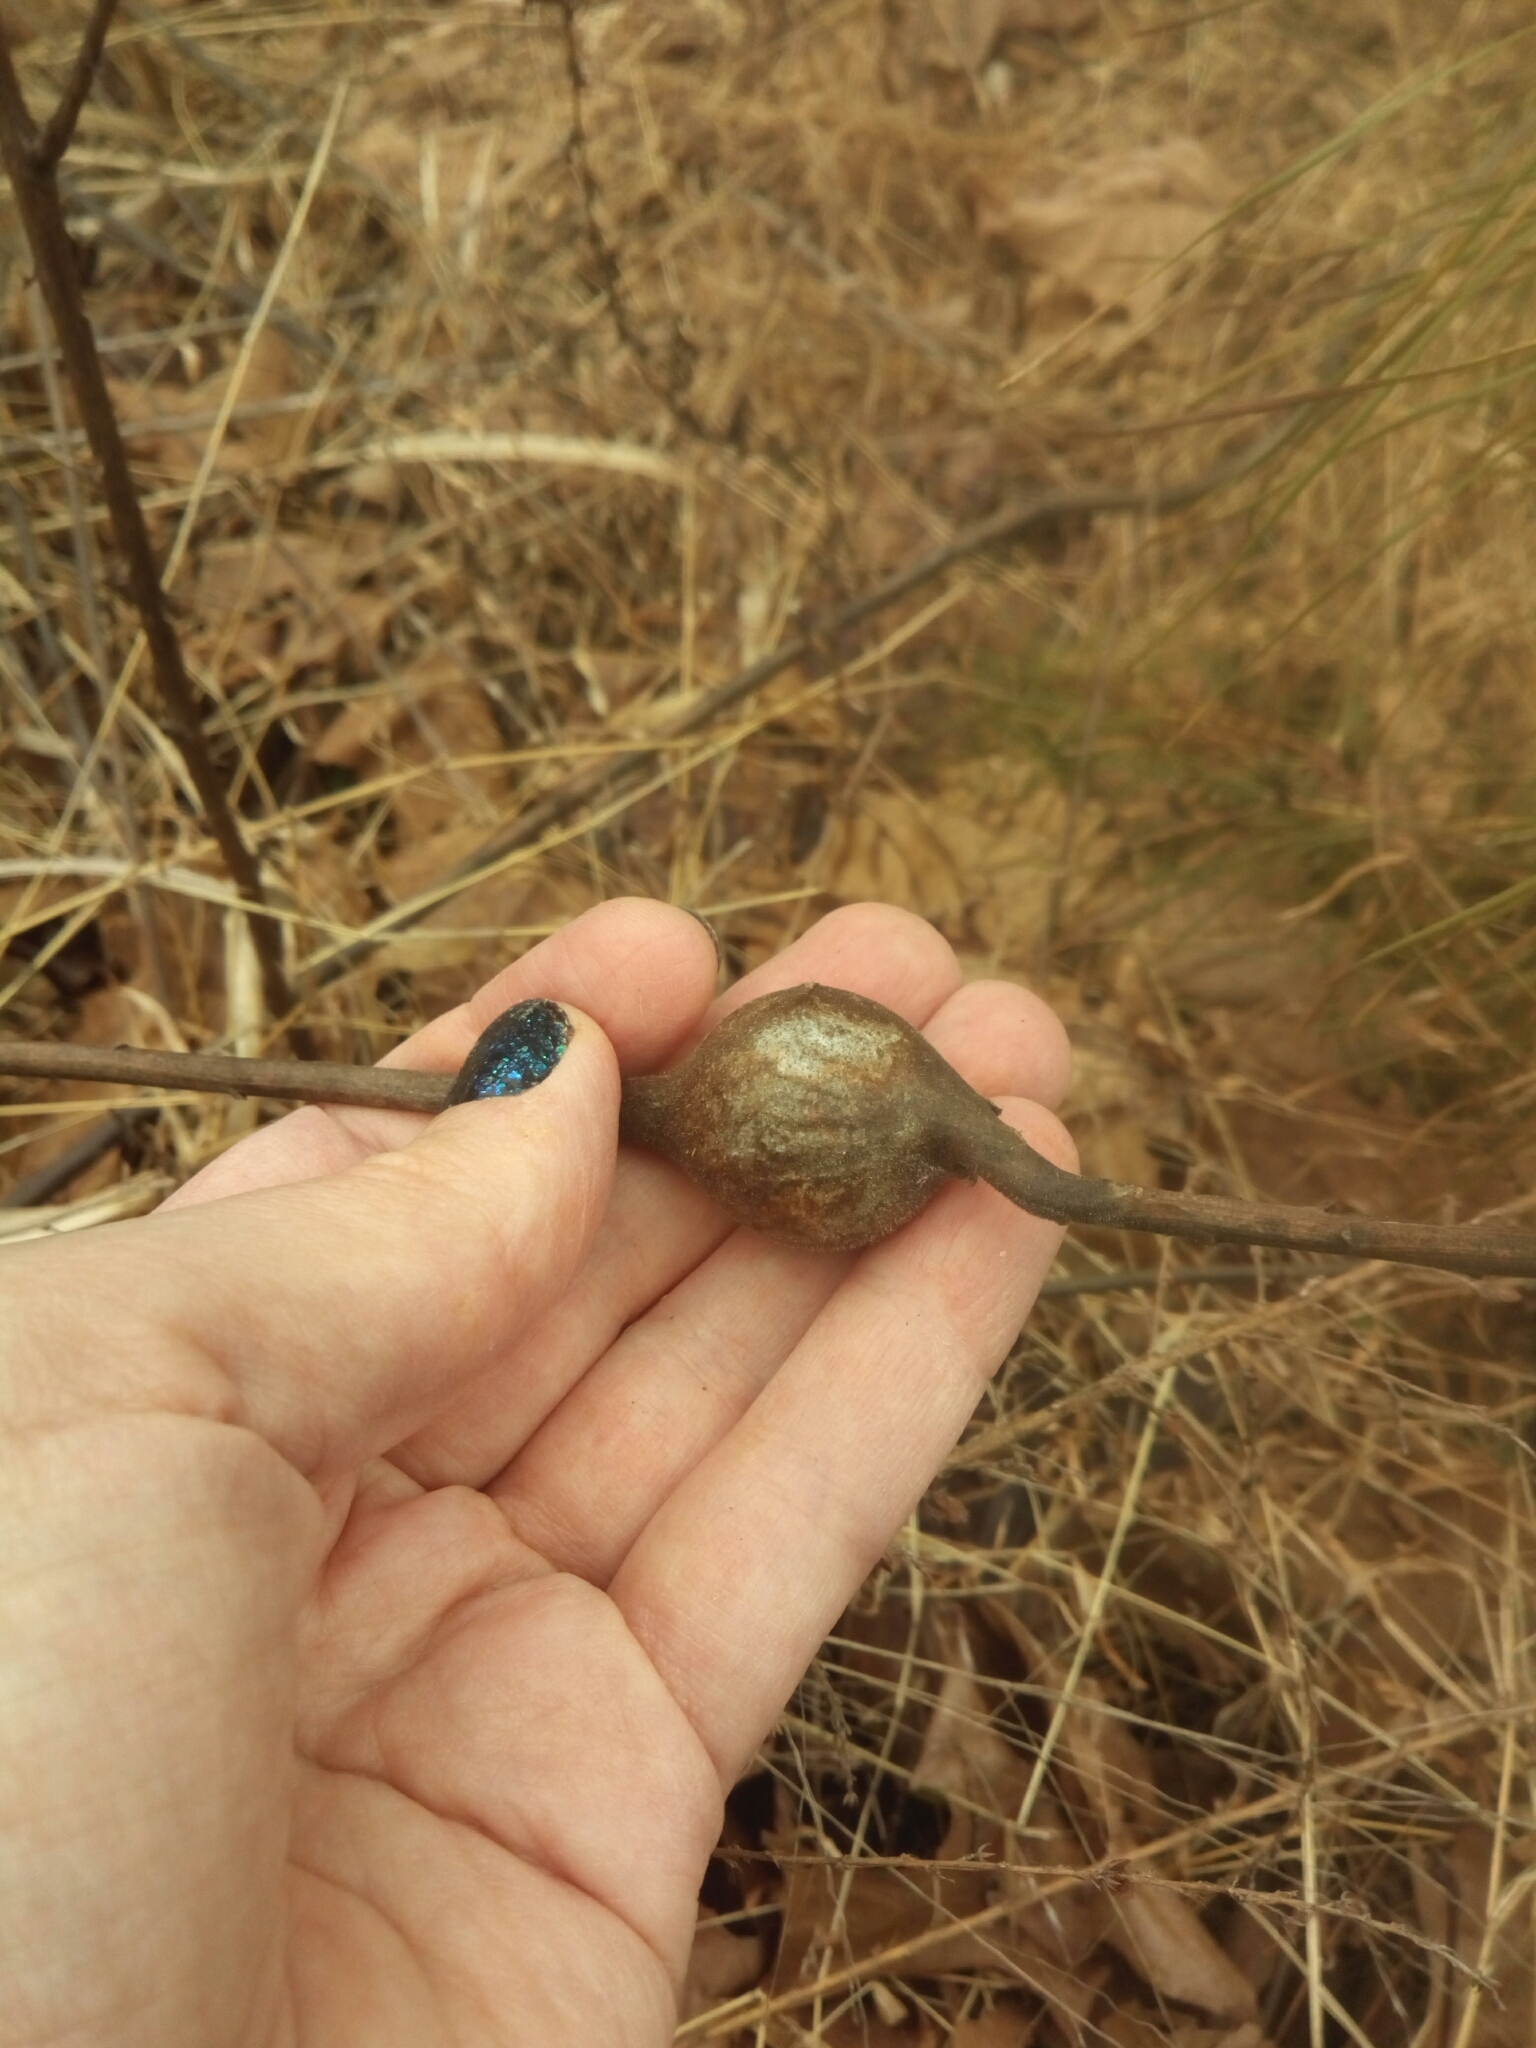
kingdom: Animalia
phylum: Arthropoda
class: Insecta
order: Diptera
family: Tephritidae
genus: Eurosta
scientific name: Eurosta solidaginis
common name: Goldenrod gall fly
